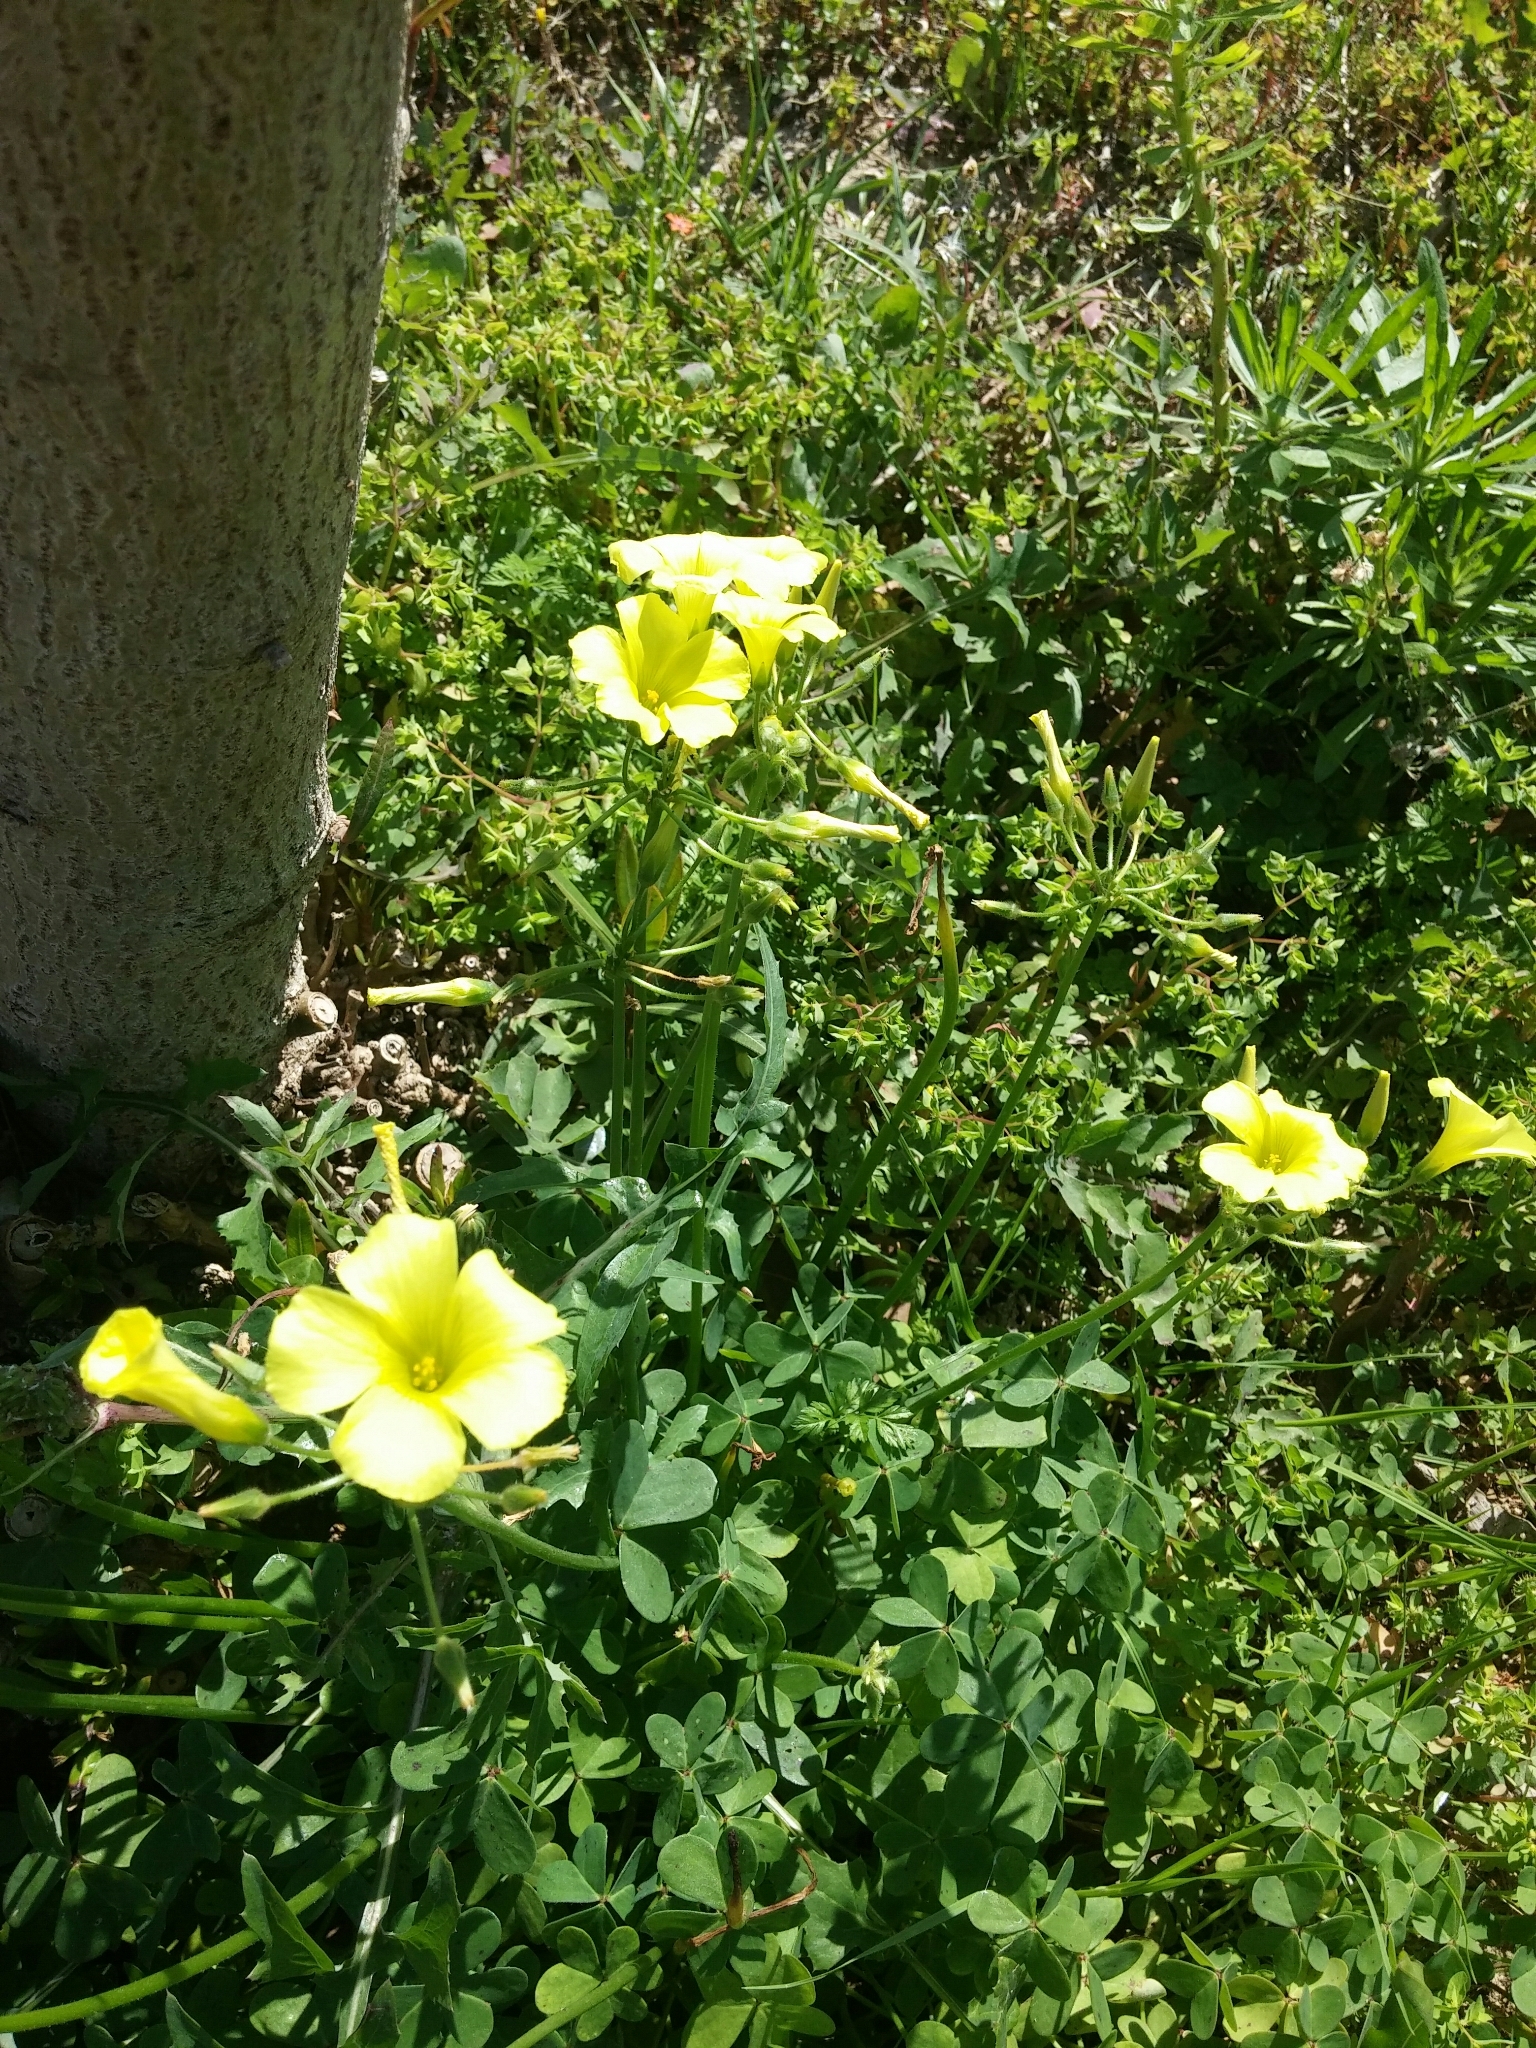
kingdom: Plantae
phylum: Tracheophyta
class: Magnoliopsida
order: Oxalidales
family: Oxalidaceae
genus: Oxalis
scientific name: Oxalis pes-caprae
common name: Bermuda-buttercup
